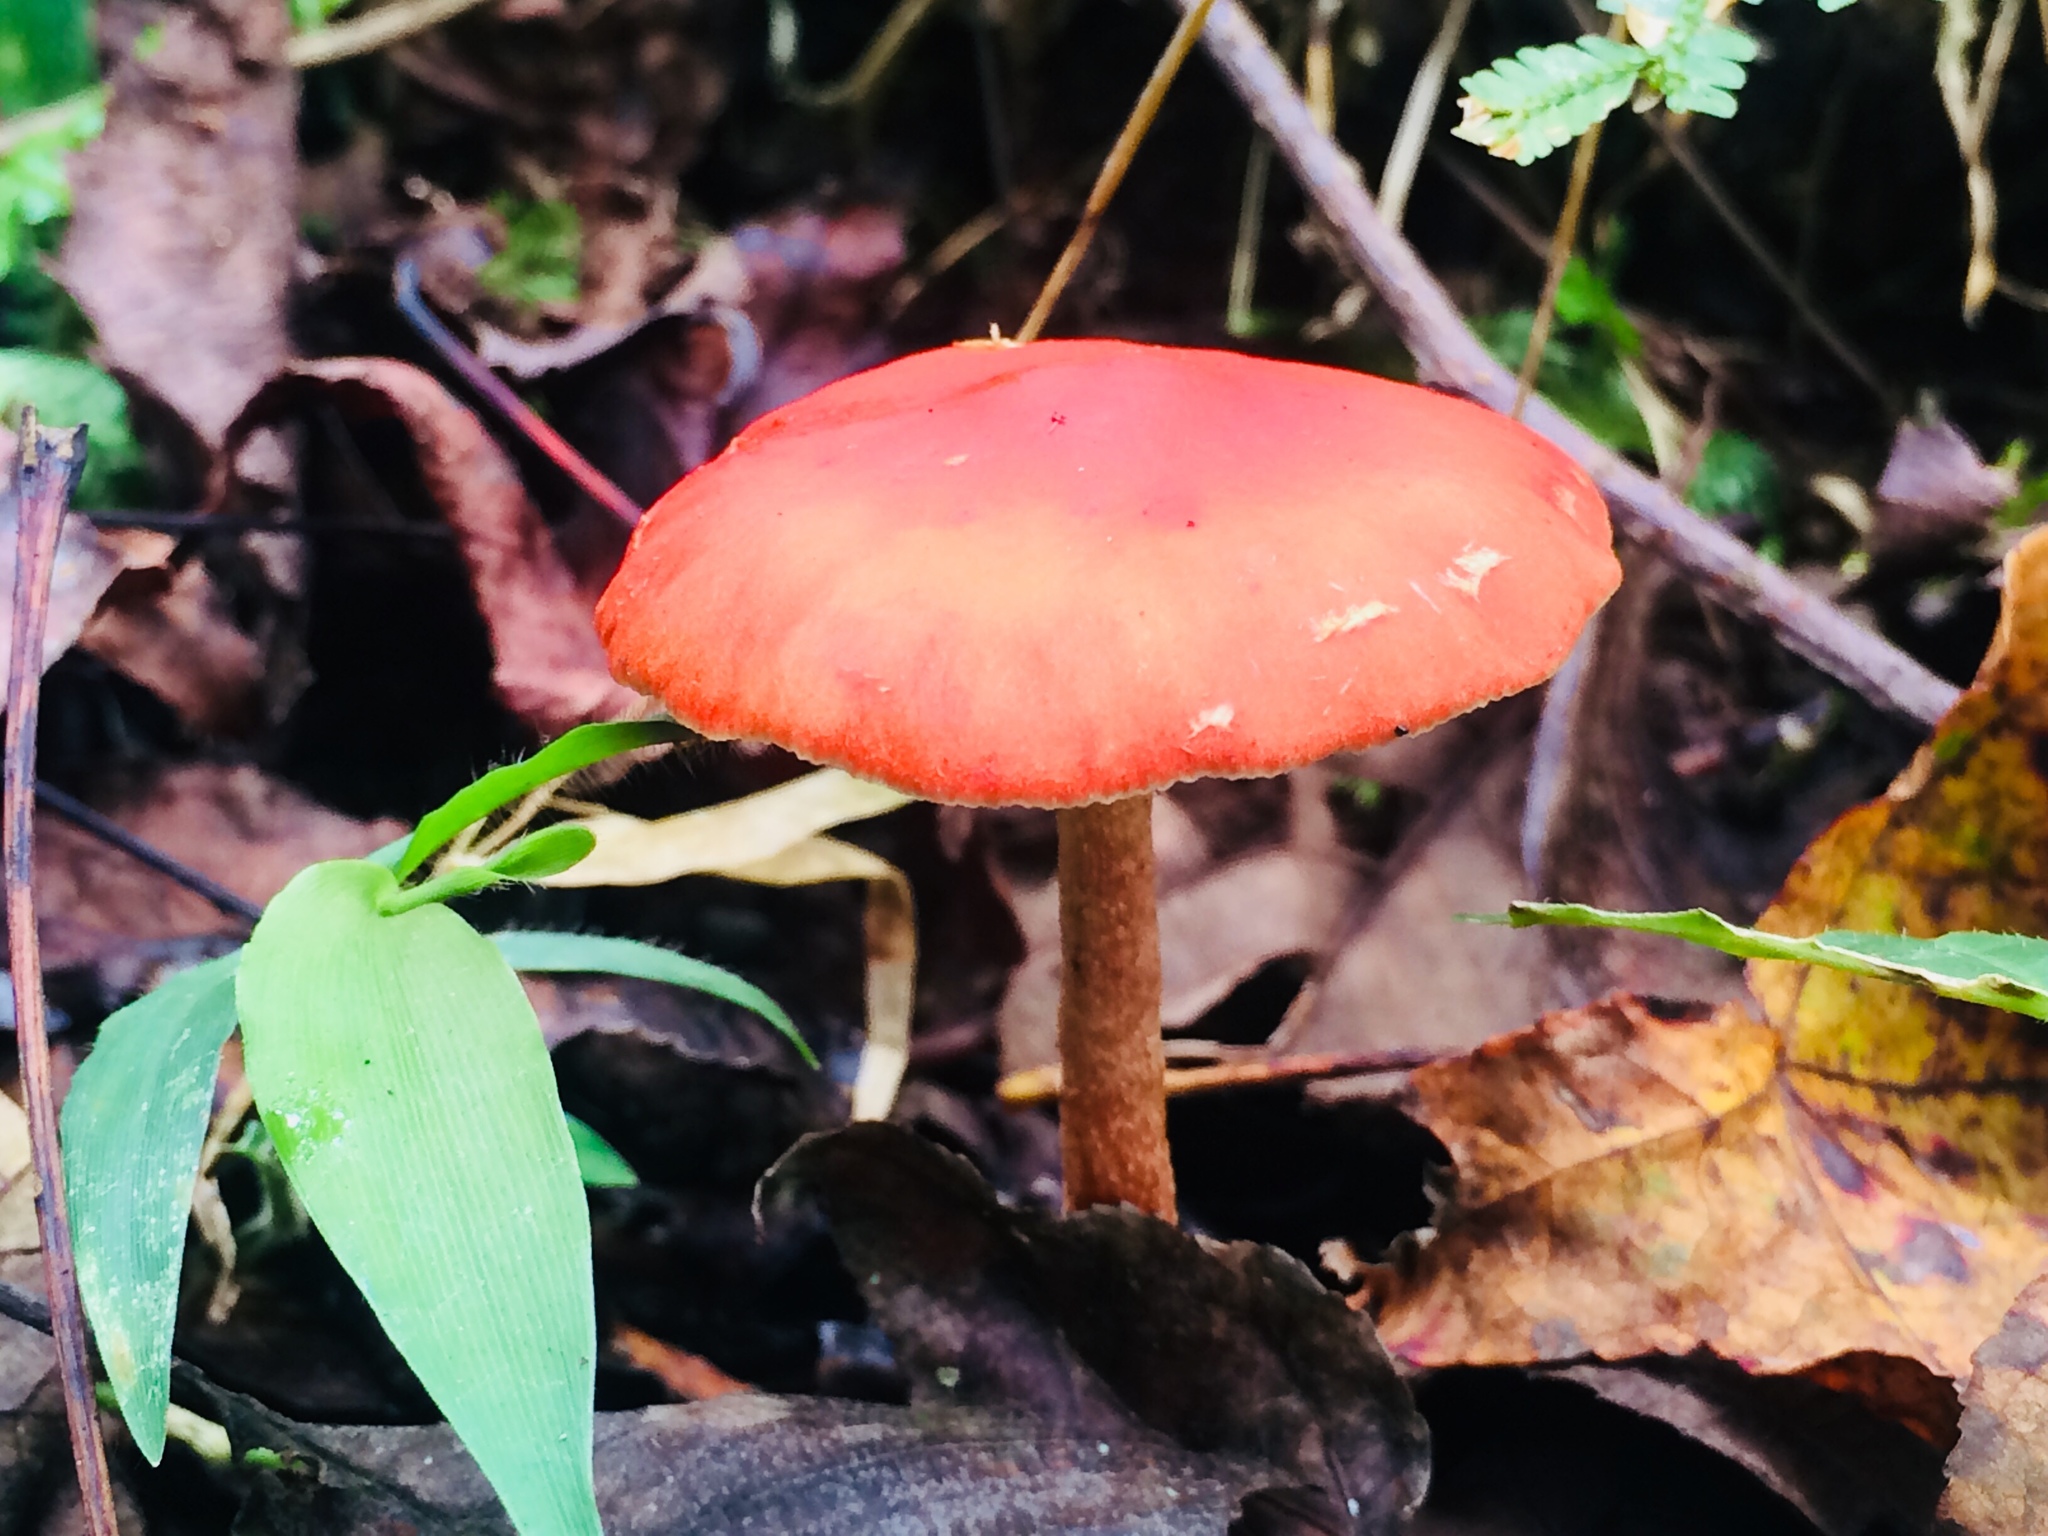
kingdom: Fungi
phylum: Basidiomycota
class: Agaricomycetes
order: Agaricales
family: Strophariaceae
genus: Leratiomyces
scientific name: Leratiomyces ceres
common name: Redlead roundhead
